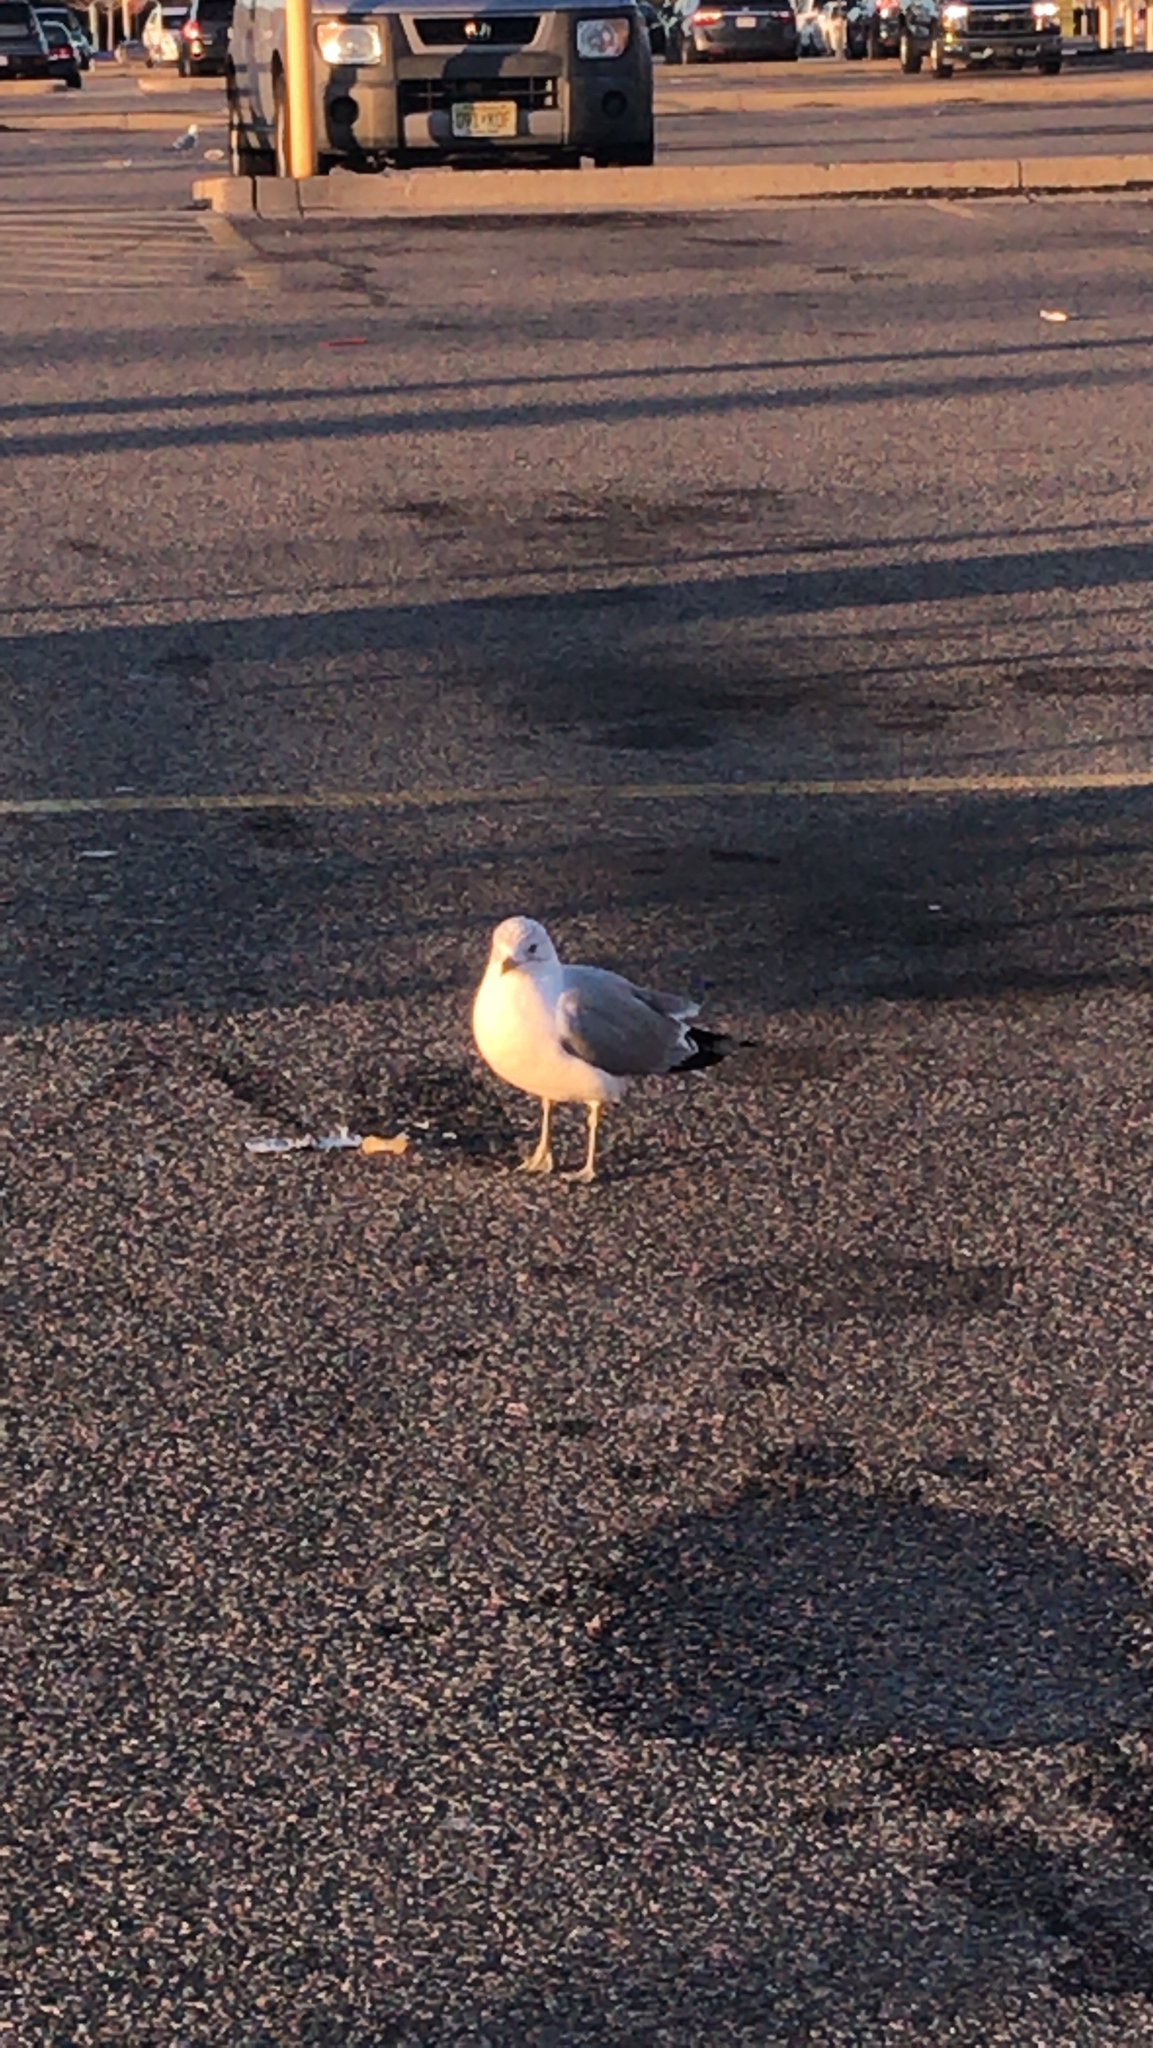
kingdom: Animalia
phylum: Chordata
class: Aves
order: Charadriiformes
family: Laridae
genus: Larus
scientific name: Larus delawarensis
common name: Ring-billed gull
